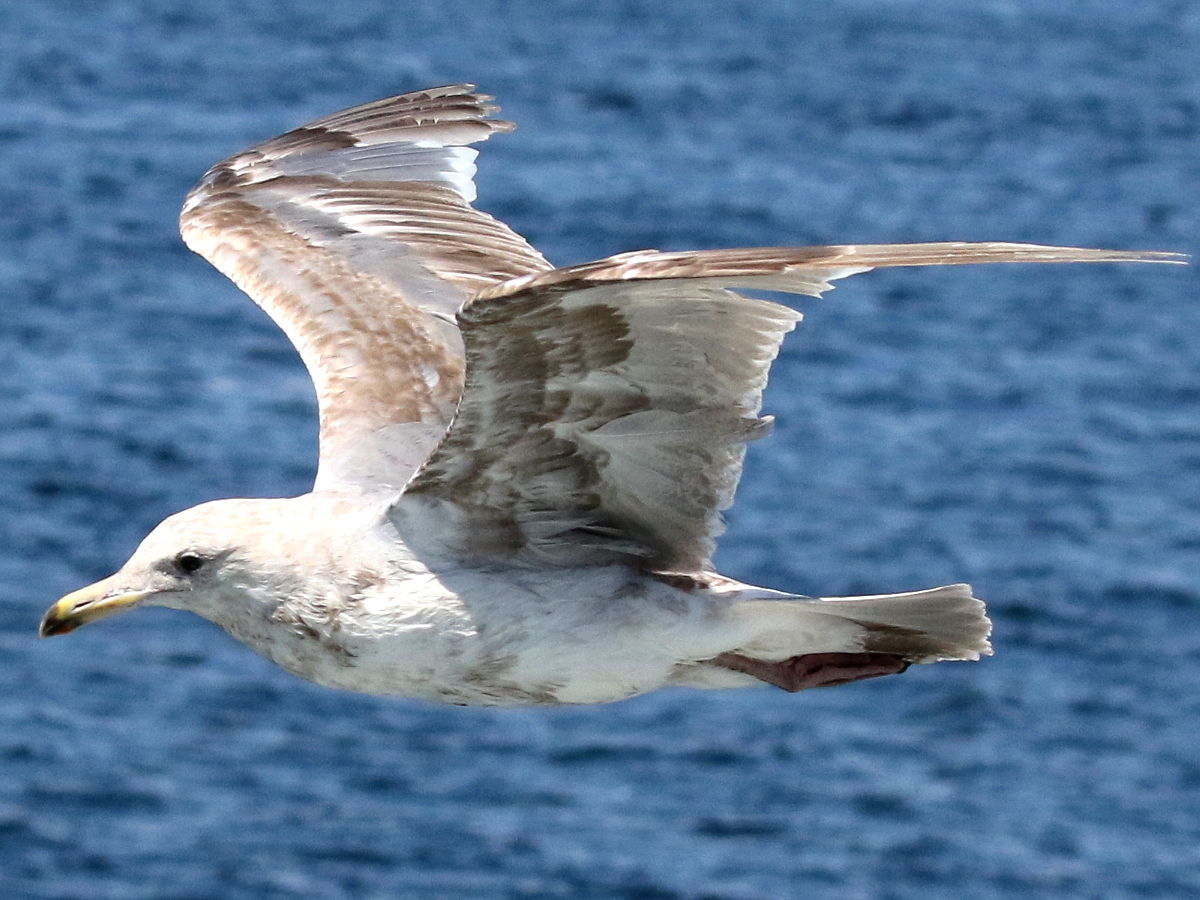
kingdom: Animalia
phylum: Chordata
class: Aves
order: Charadriiformes
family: Laridae
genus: Larus
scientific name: Larus
